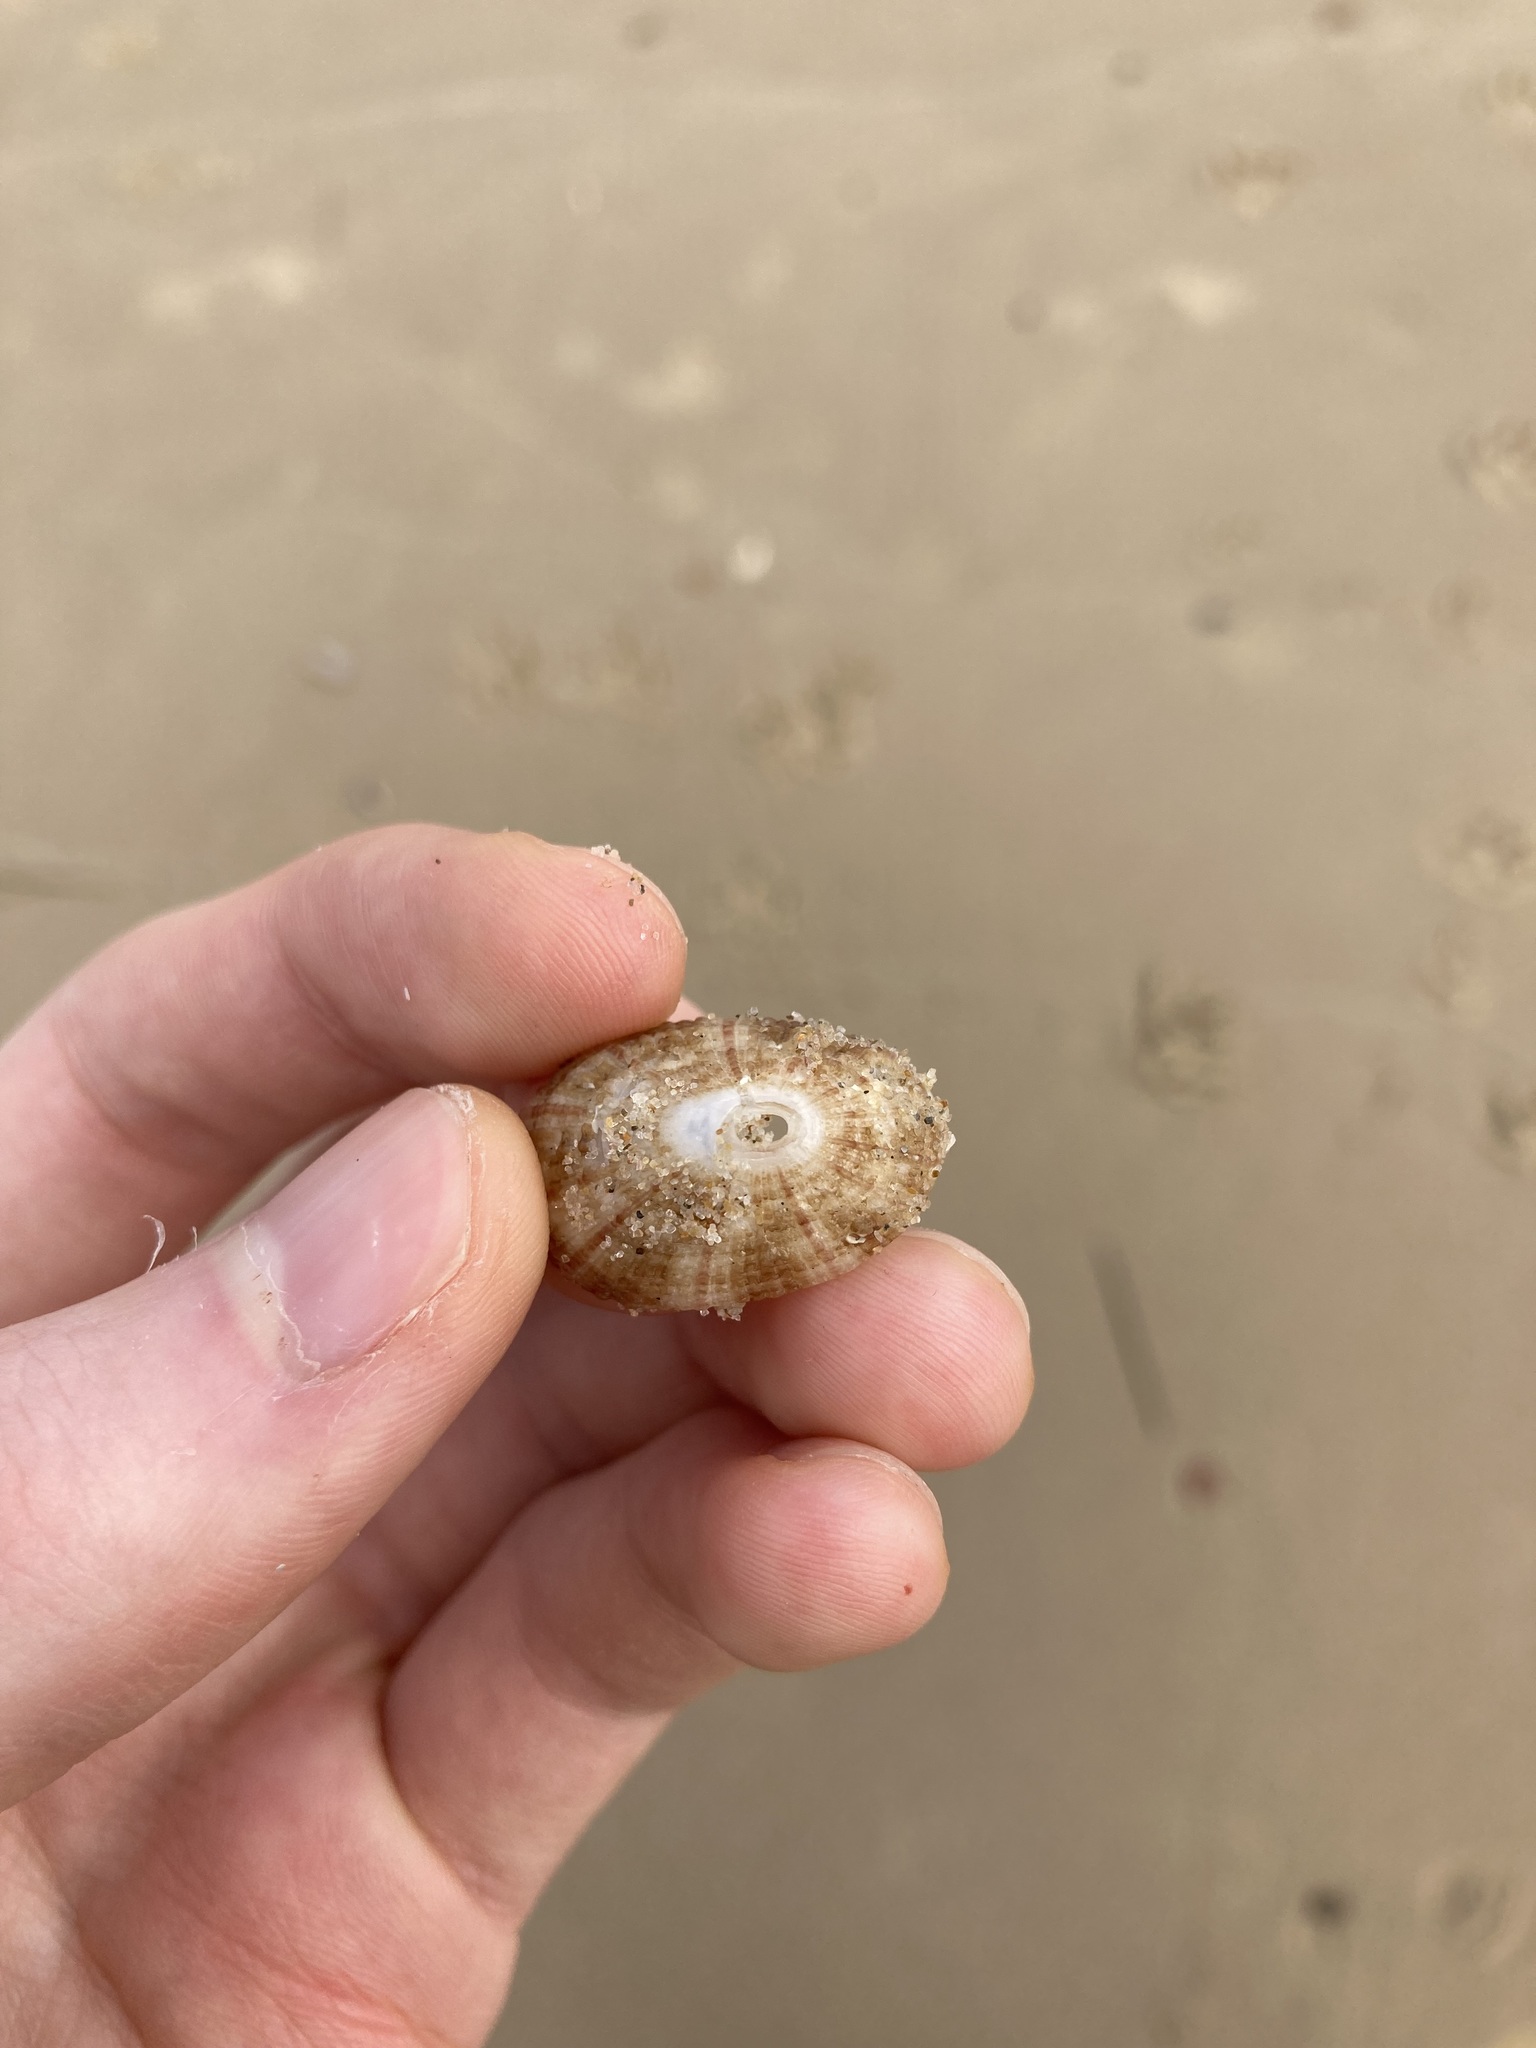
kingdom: Animalia
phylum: Mollusca
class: Gastropoda
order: Lepetellida
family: Fissurellidae
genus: Diodora
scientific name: Diodora lineata
